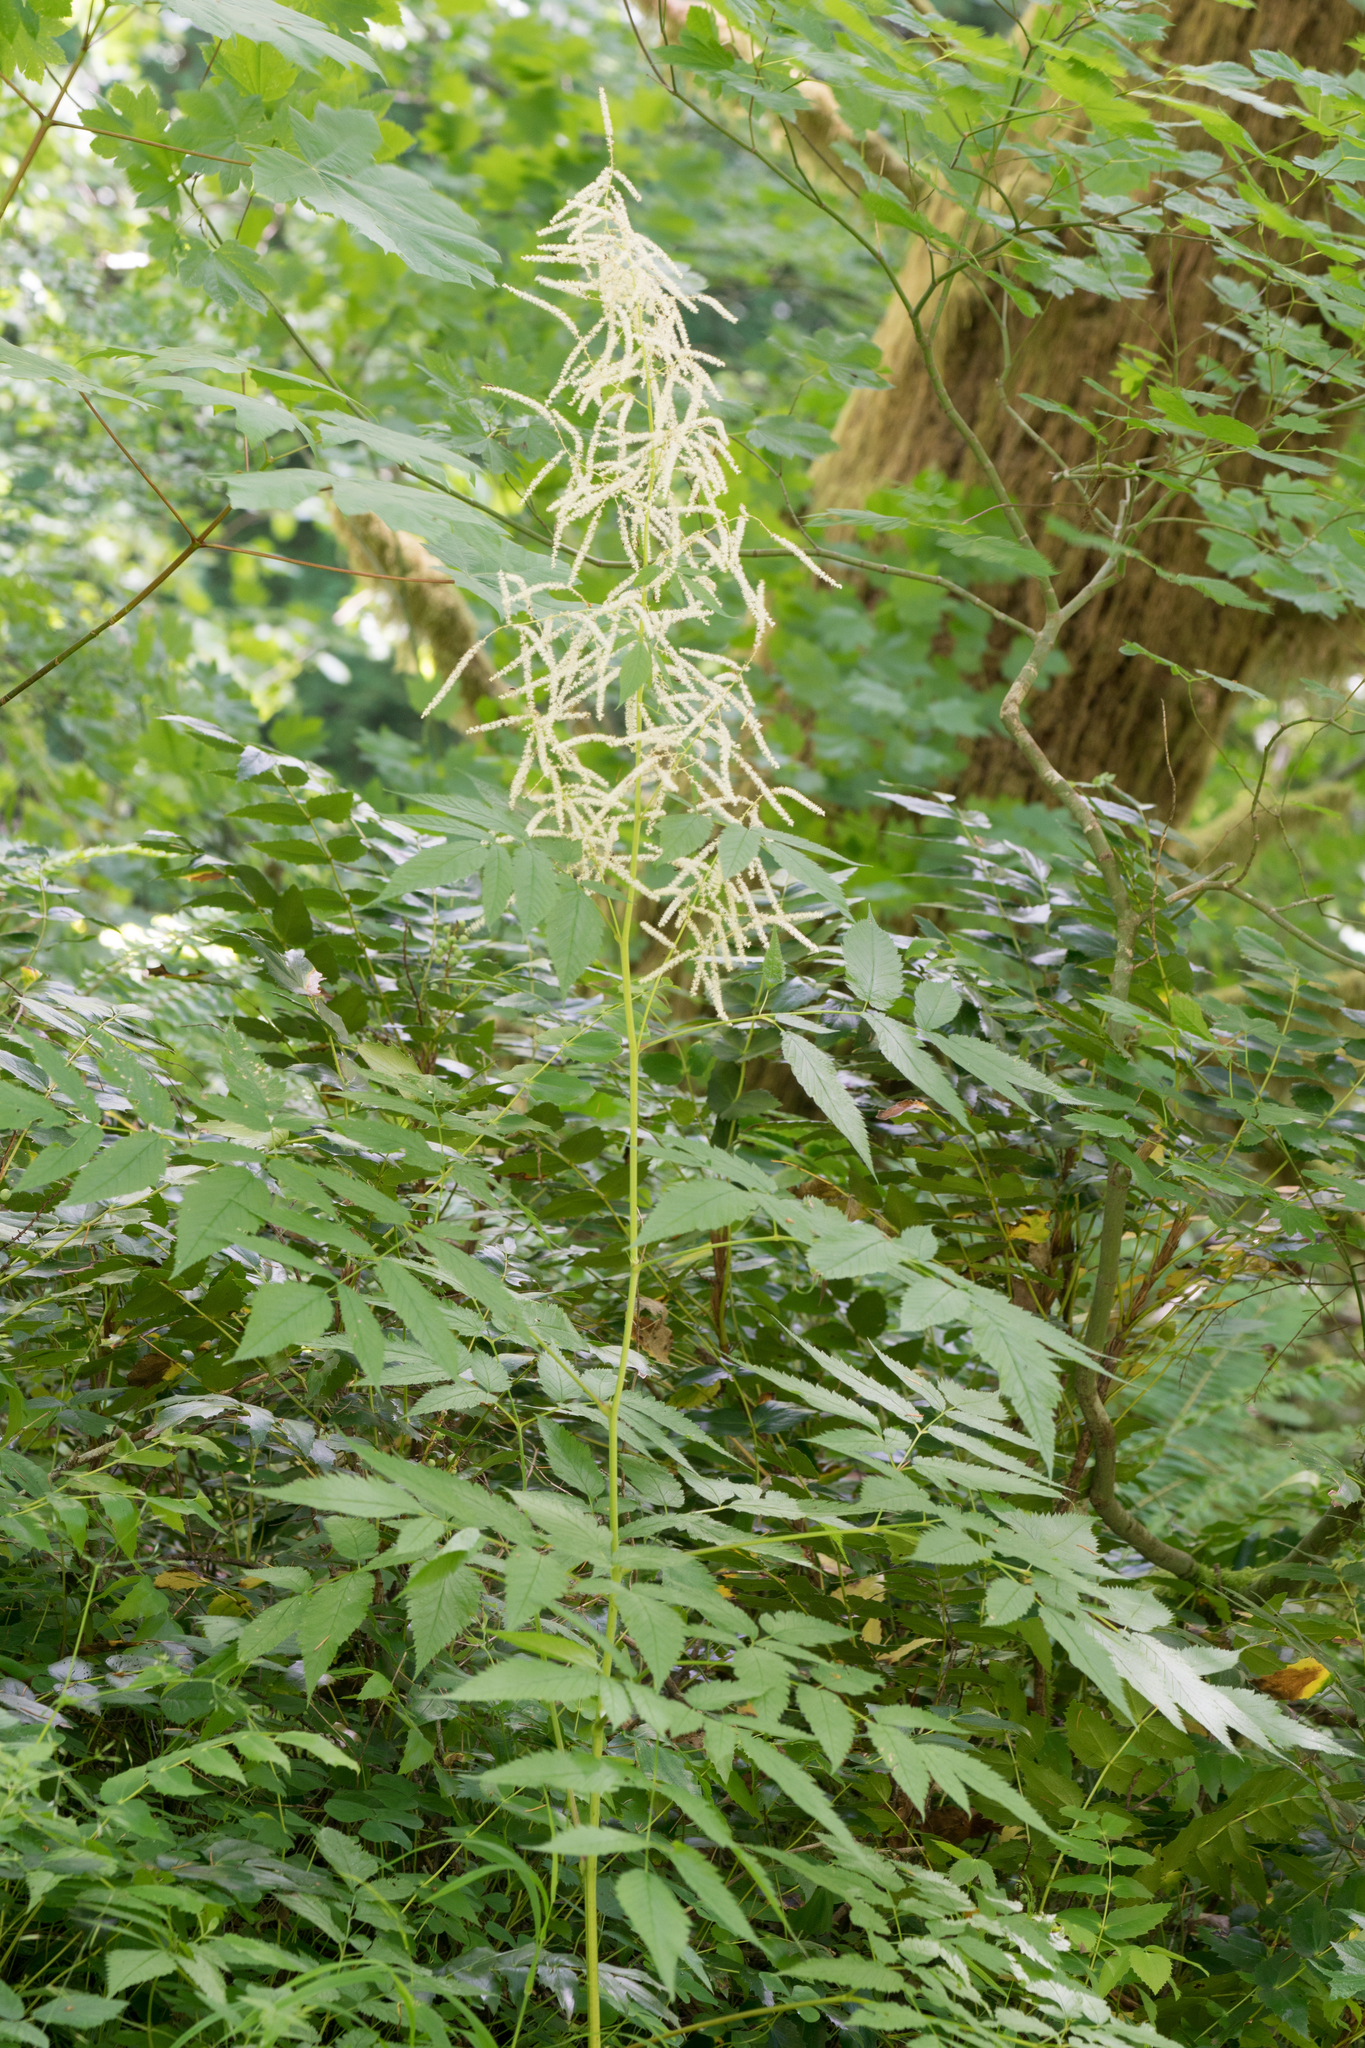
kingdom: Plantae
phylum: Tracheophyta
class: Magnoliopsida
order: Rosales
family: Rosaceae
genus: Aruncus
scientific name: Aruncus dioicus
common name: Buck's-beard
